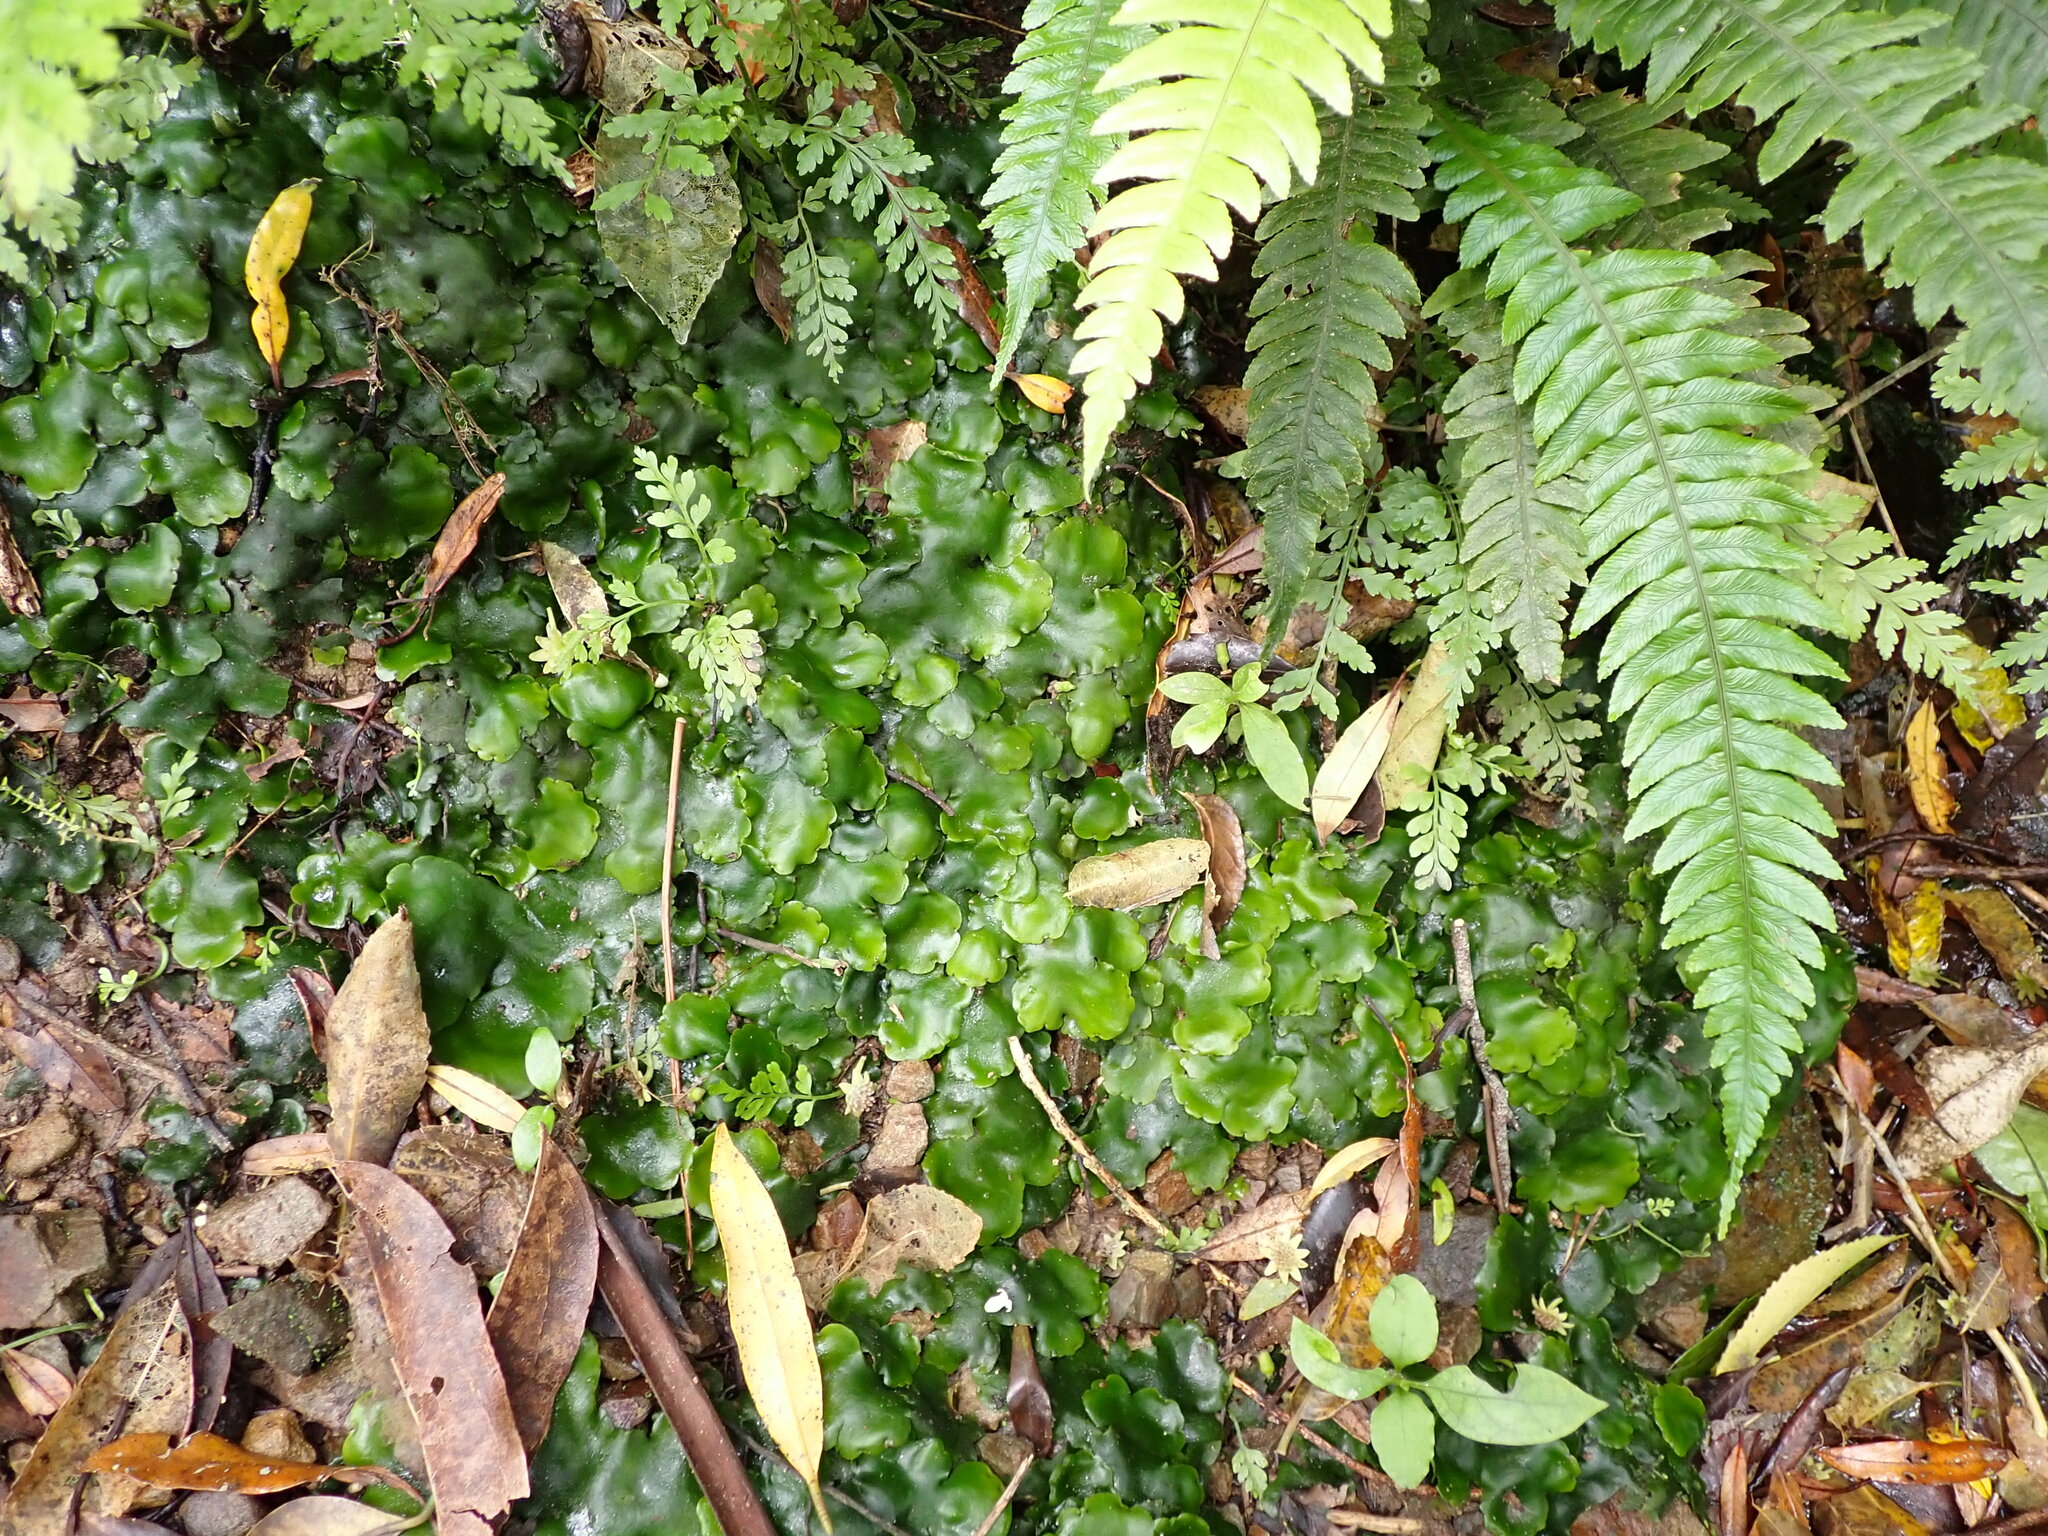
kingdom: Plantae
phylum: Marchantiophyta
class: Marchantiopsida
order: Marchantiales
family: Monocleaceae
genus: Monoclea
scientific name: Monoclea forsteri
